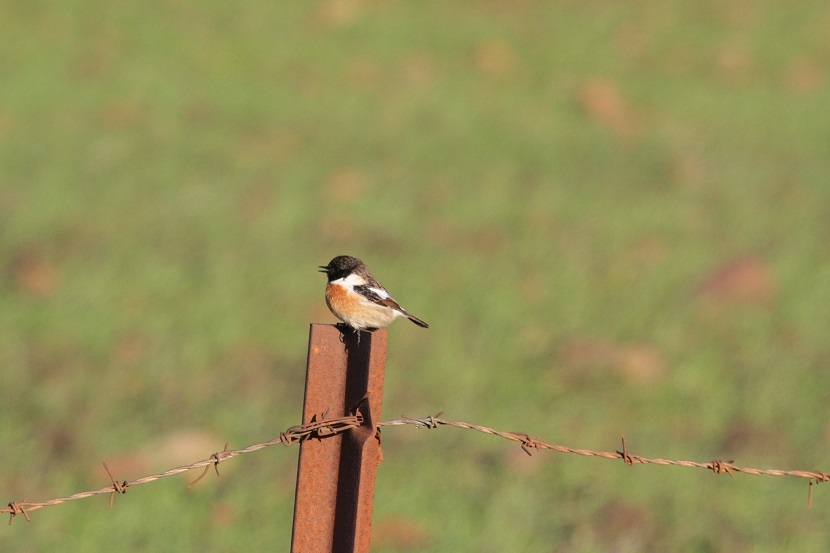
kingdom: Animalia
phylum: Chordata
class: Aves
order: Passeriformes
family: Muscicapidae
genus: Saxicola
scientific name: Saxicola rubicola
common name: European stonechat
